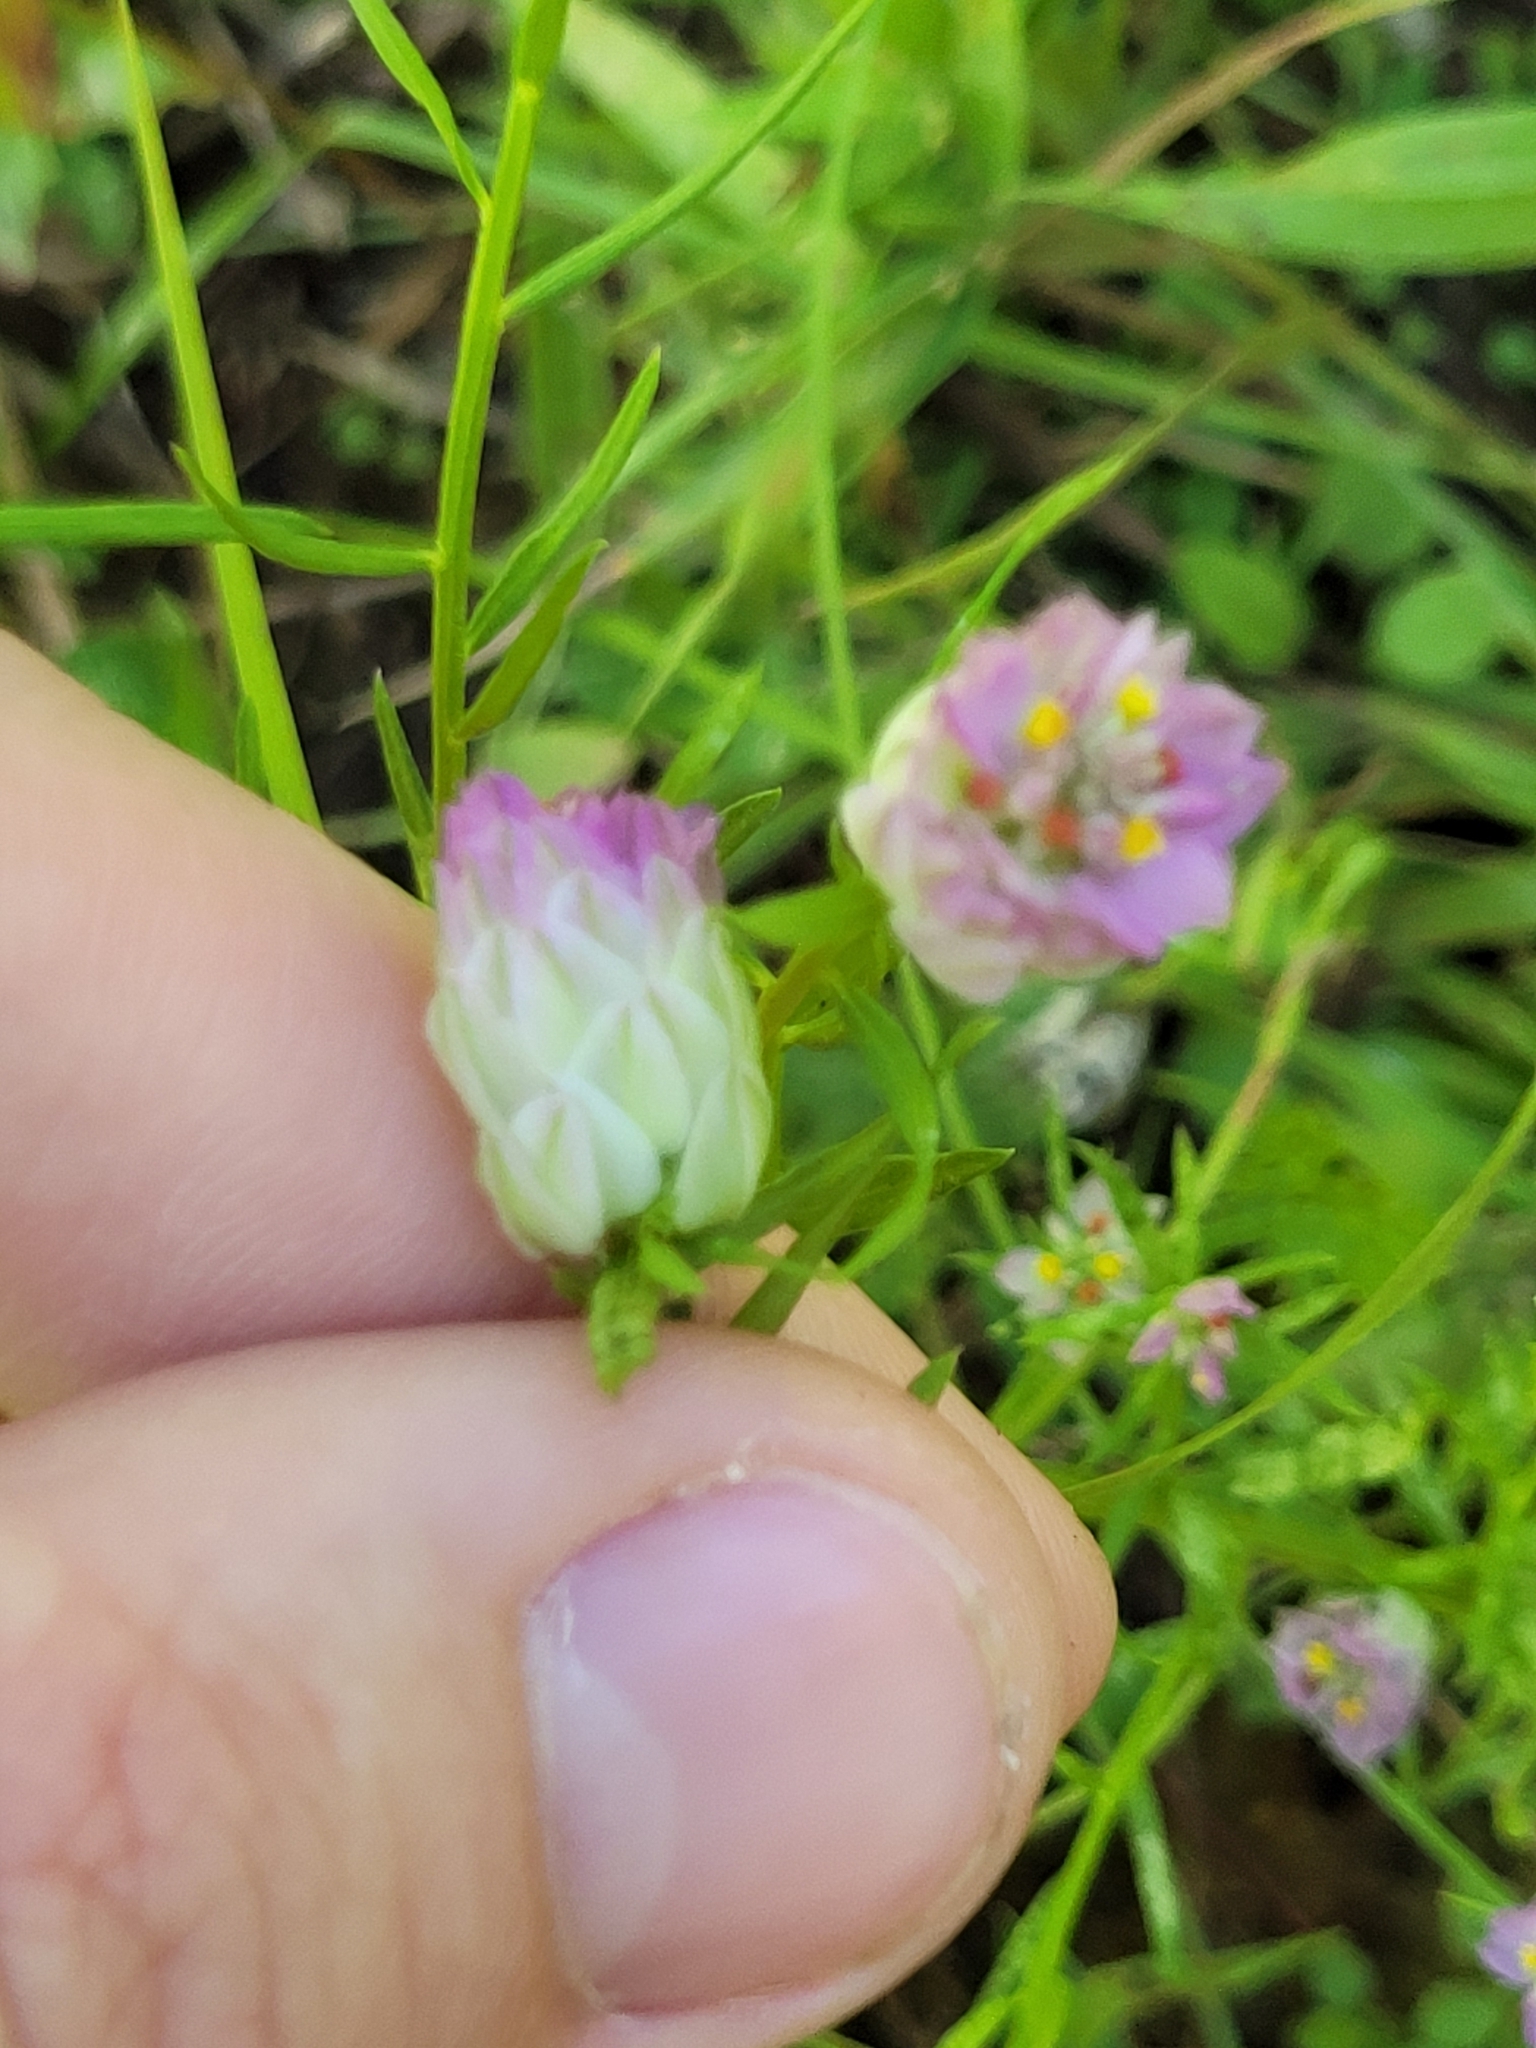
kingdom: Plantae
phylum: Tracheophyta
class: Magnoliopsida
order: Fabales
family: Polygalaceae
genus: Polygala
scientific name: Polygala sanguinea
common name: Blood milkwort
